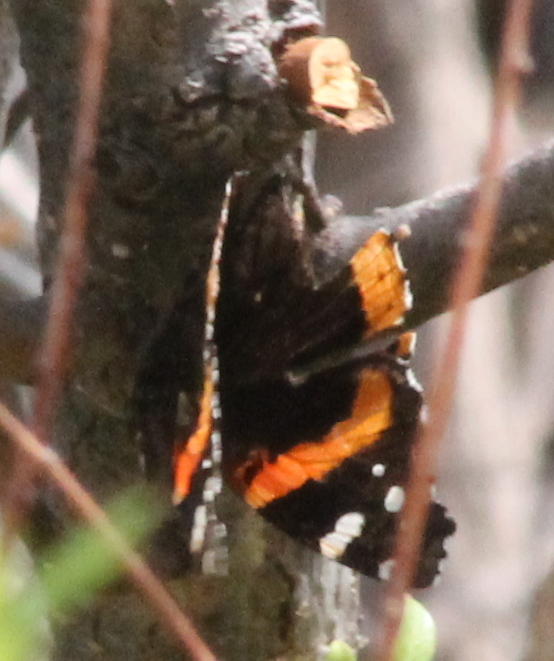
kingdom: Animalia
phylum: Arthropoda
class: Insecta
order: Lepidoptera
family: Nymphalidae
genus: Vanessa
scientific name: Vanessa atalanta
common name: Red admiral
